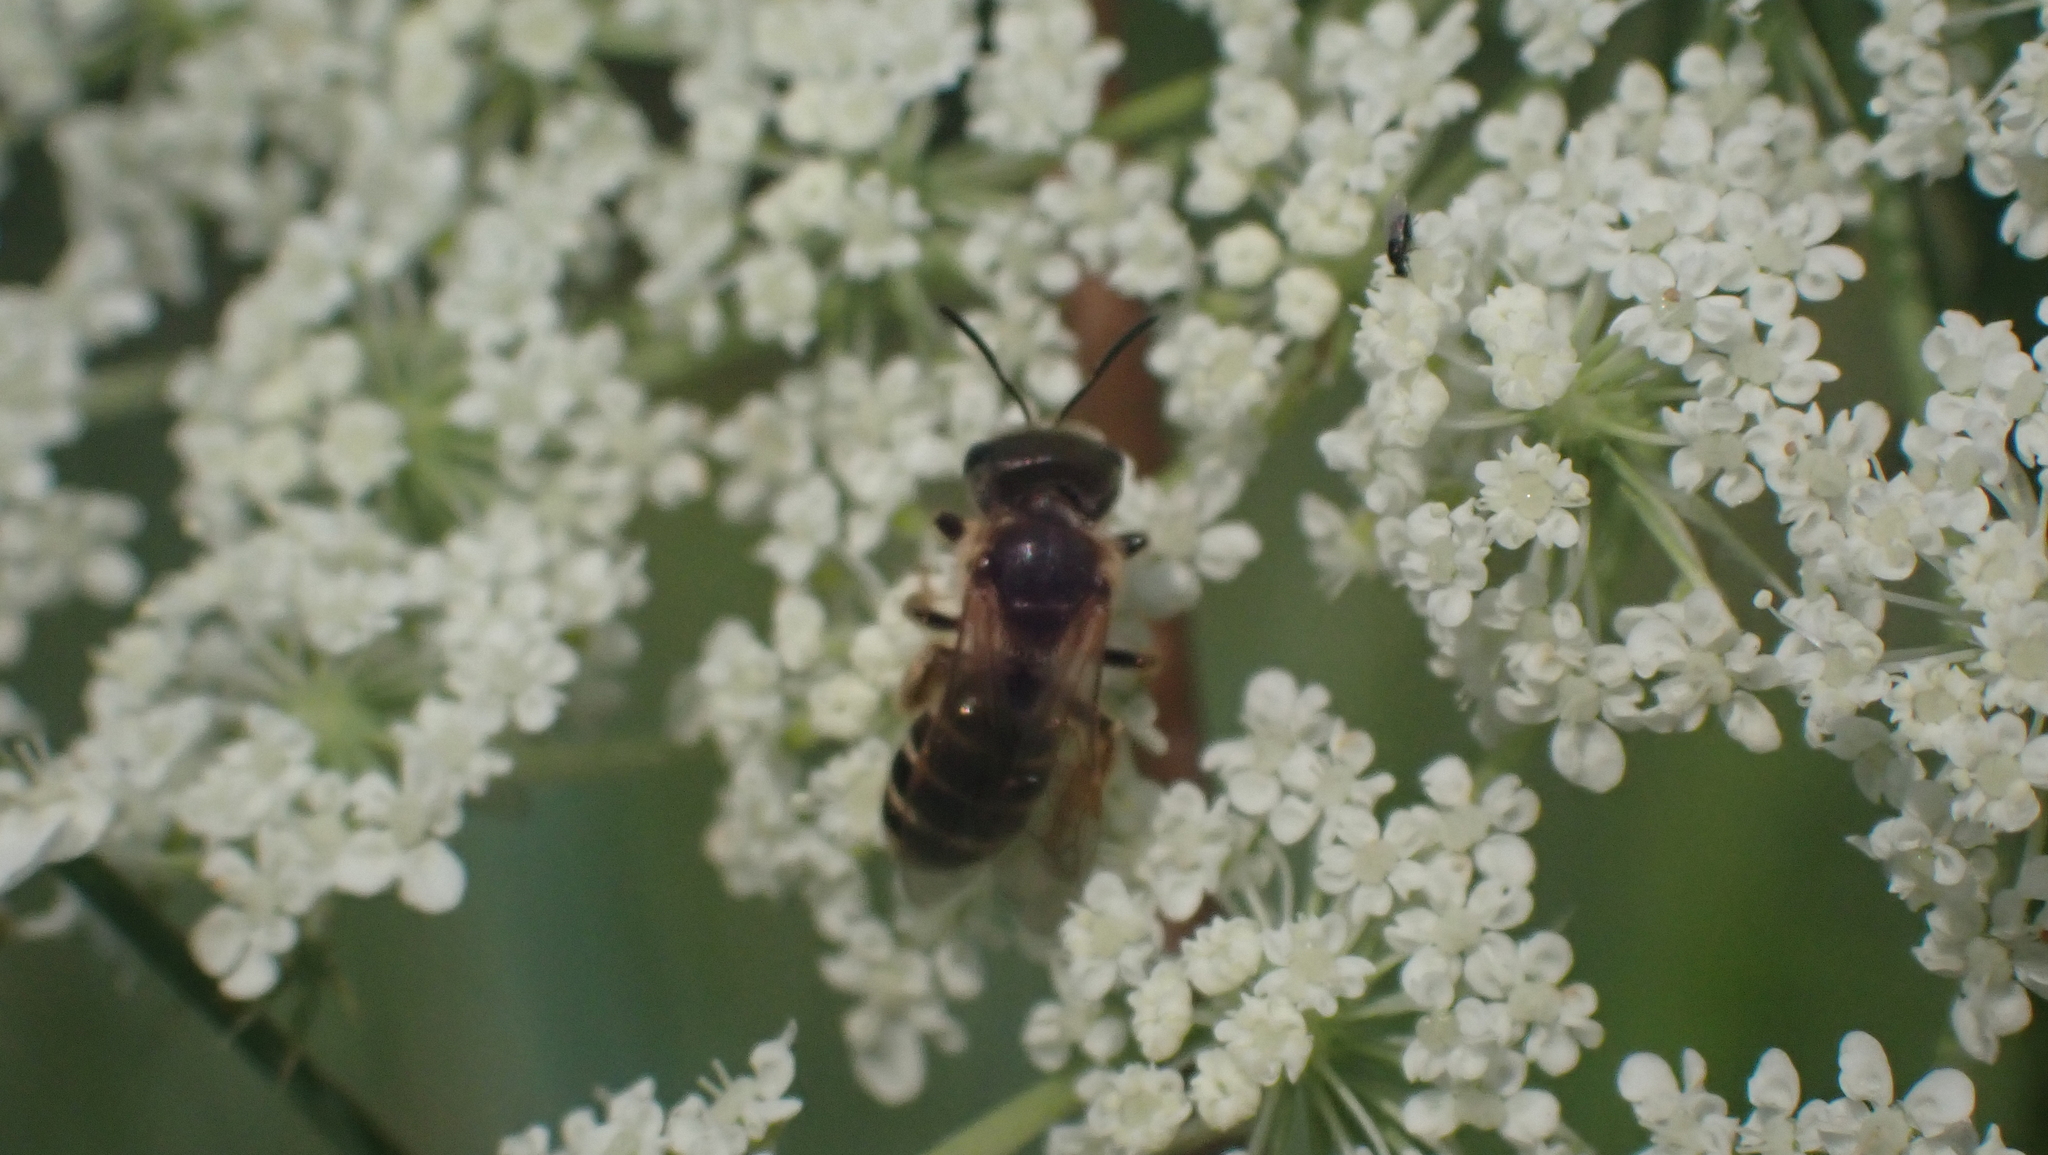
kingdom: Animalia
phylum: Arthropoda
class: Insecta
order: Hymenoptera
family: Halictidae
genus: Halictus
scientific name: Halictus ligatus
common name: Ligated furrow bee
